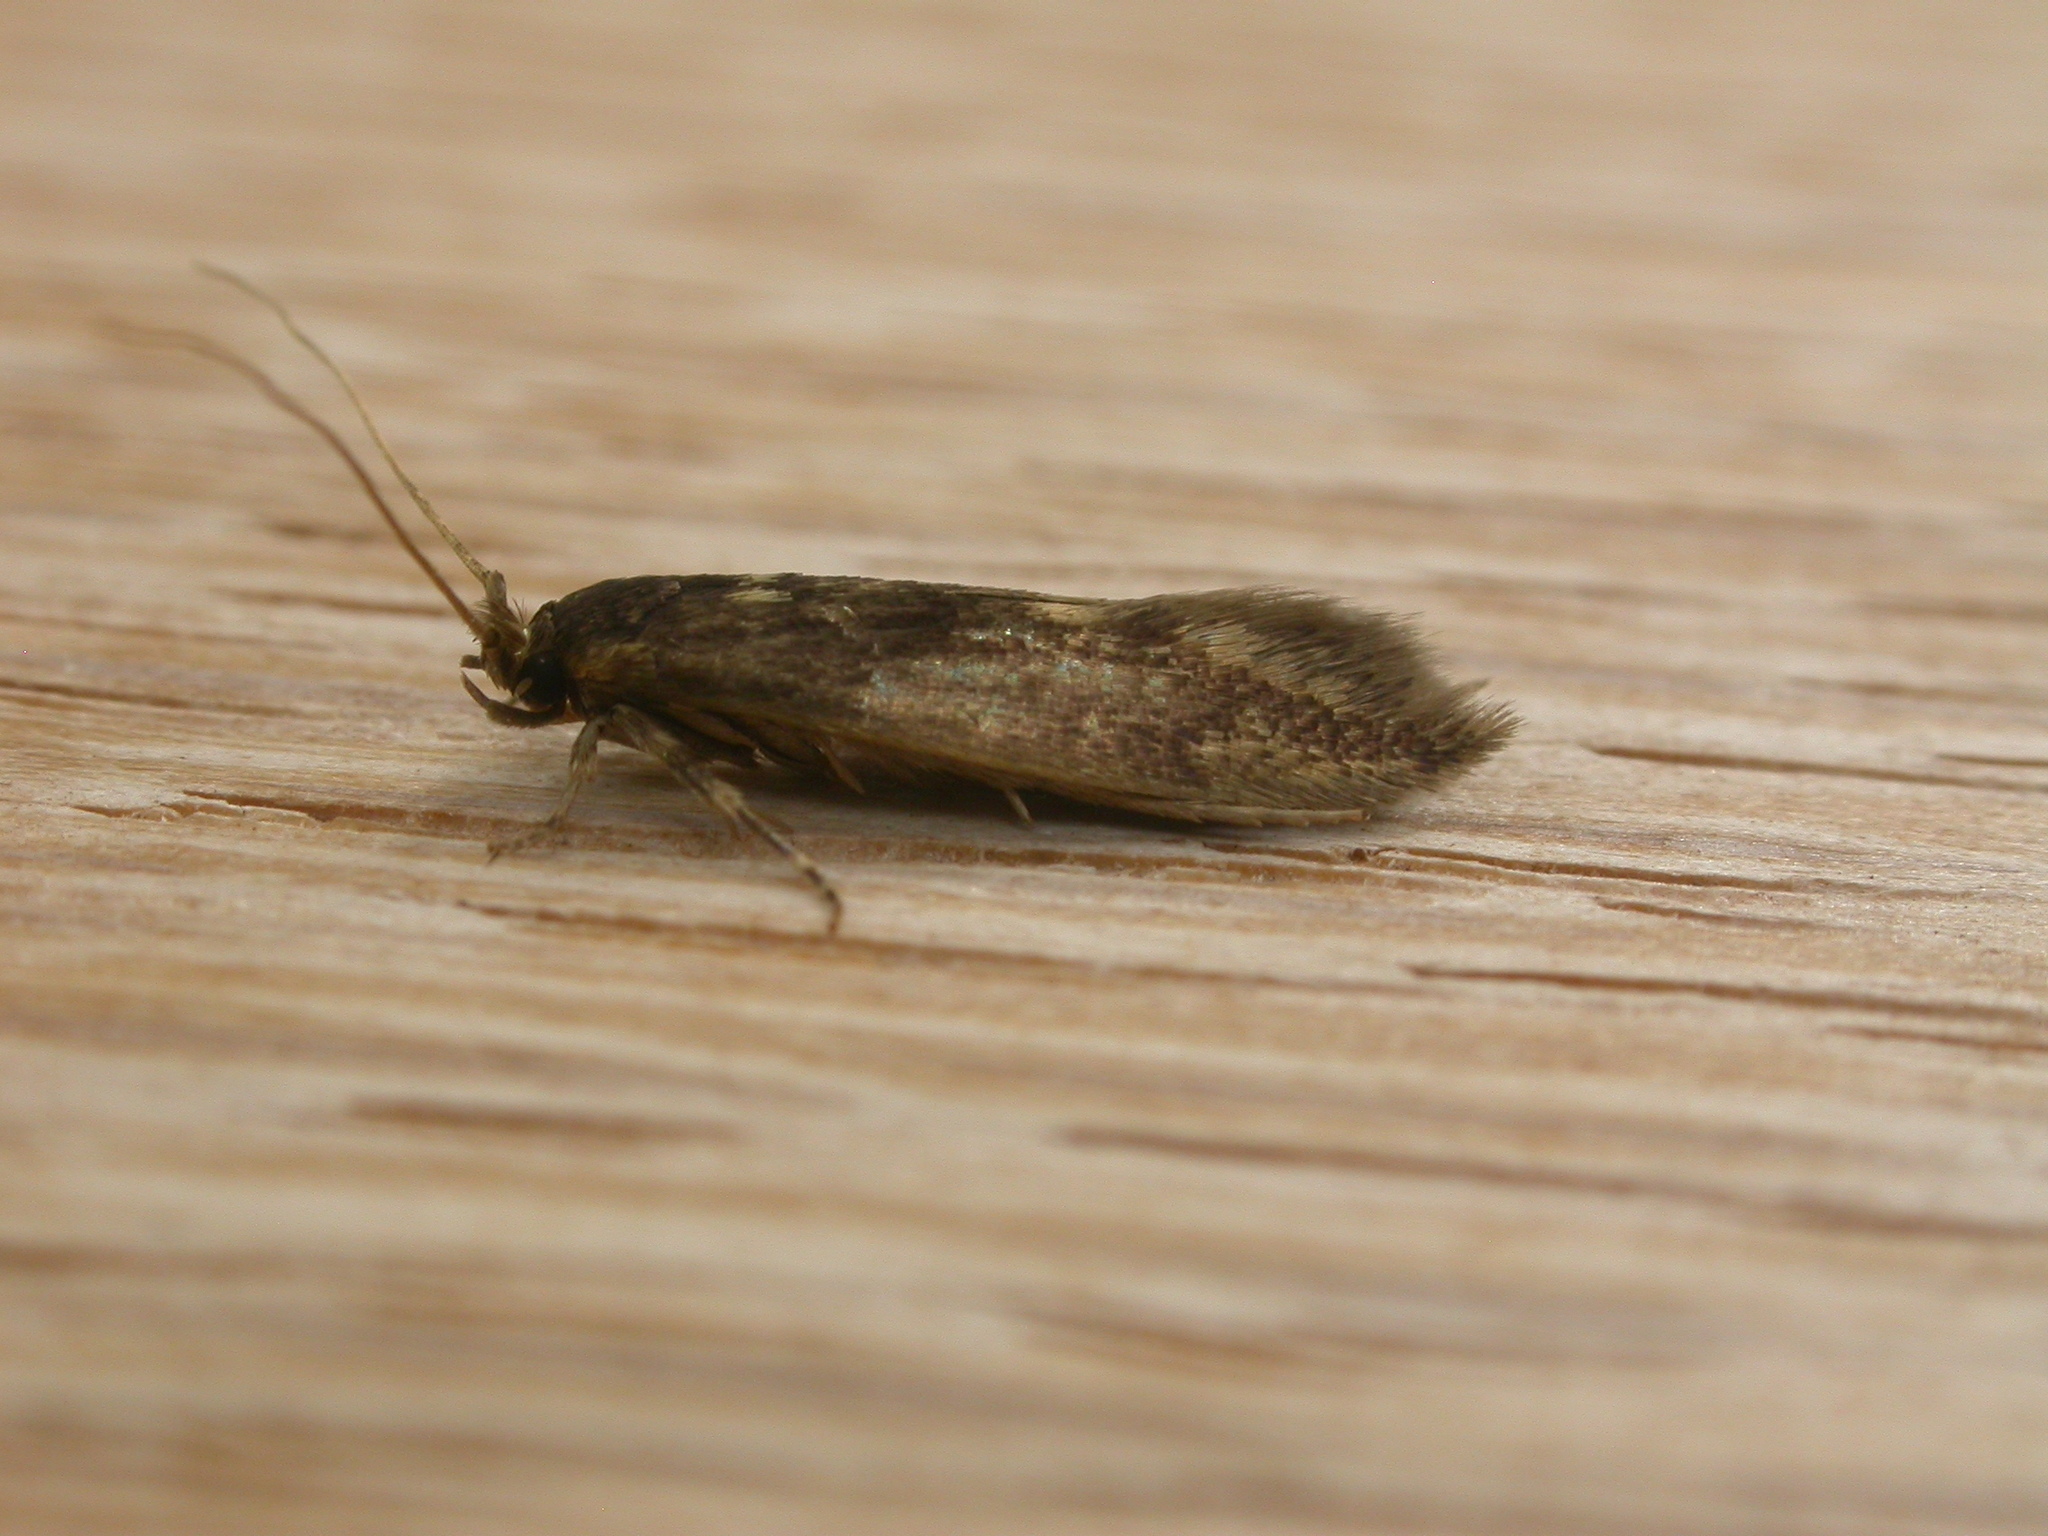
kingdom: Animalia
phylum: Arthropoda
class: Insecta
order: Lepidoptera
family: Tineidae
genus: Opogona
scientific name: Opogona omoscopa
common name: Moth
